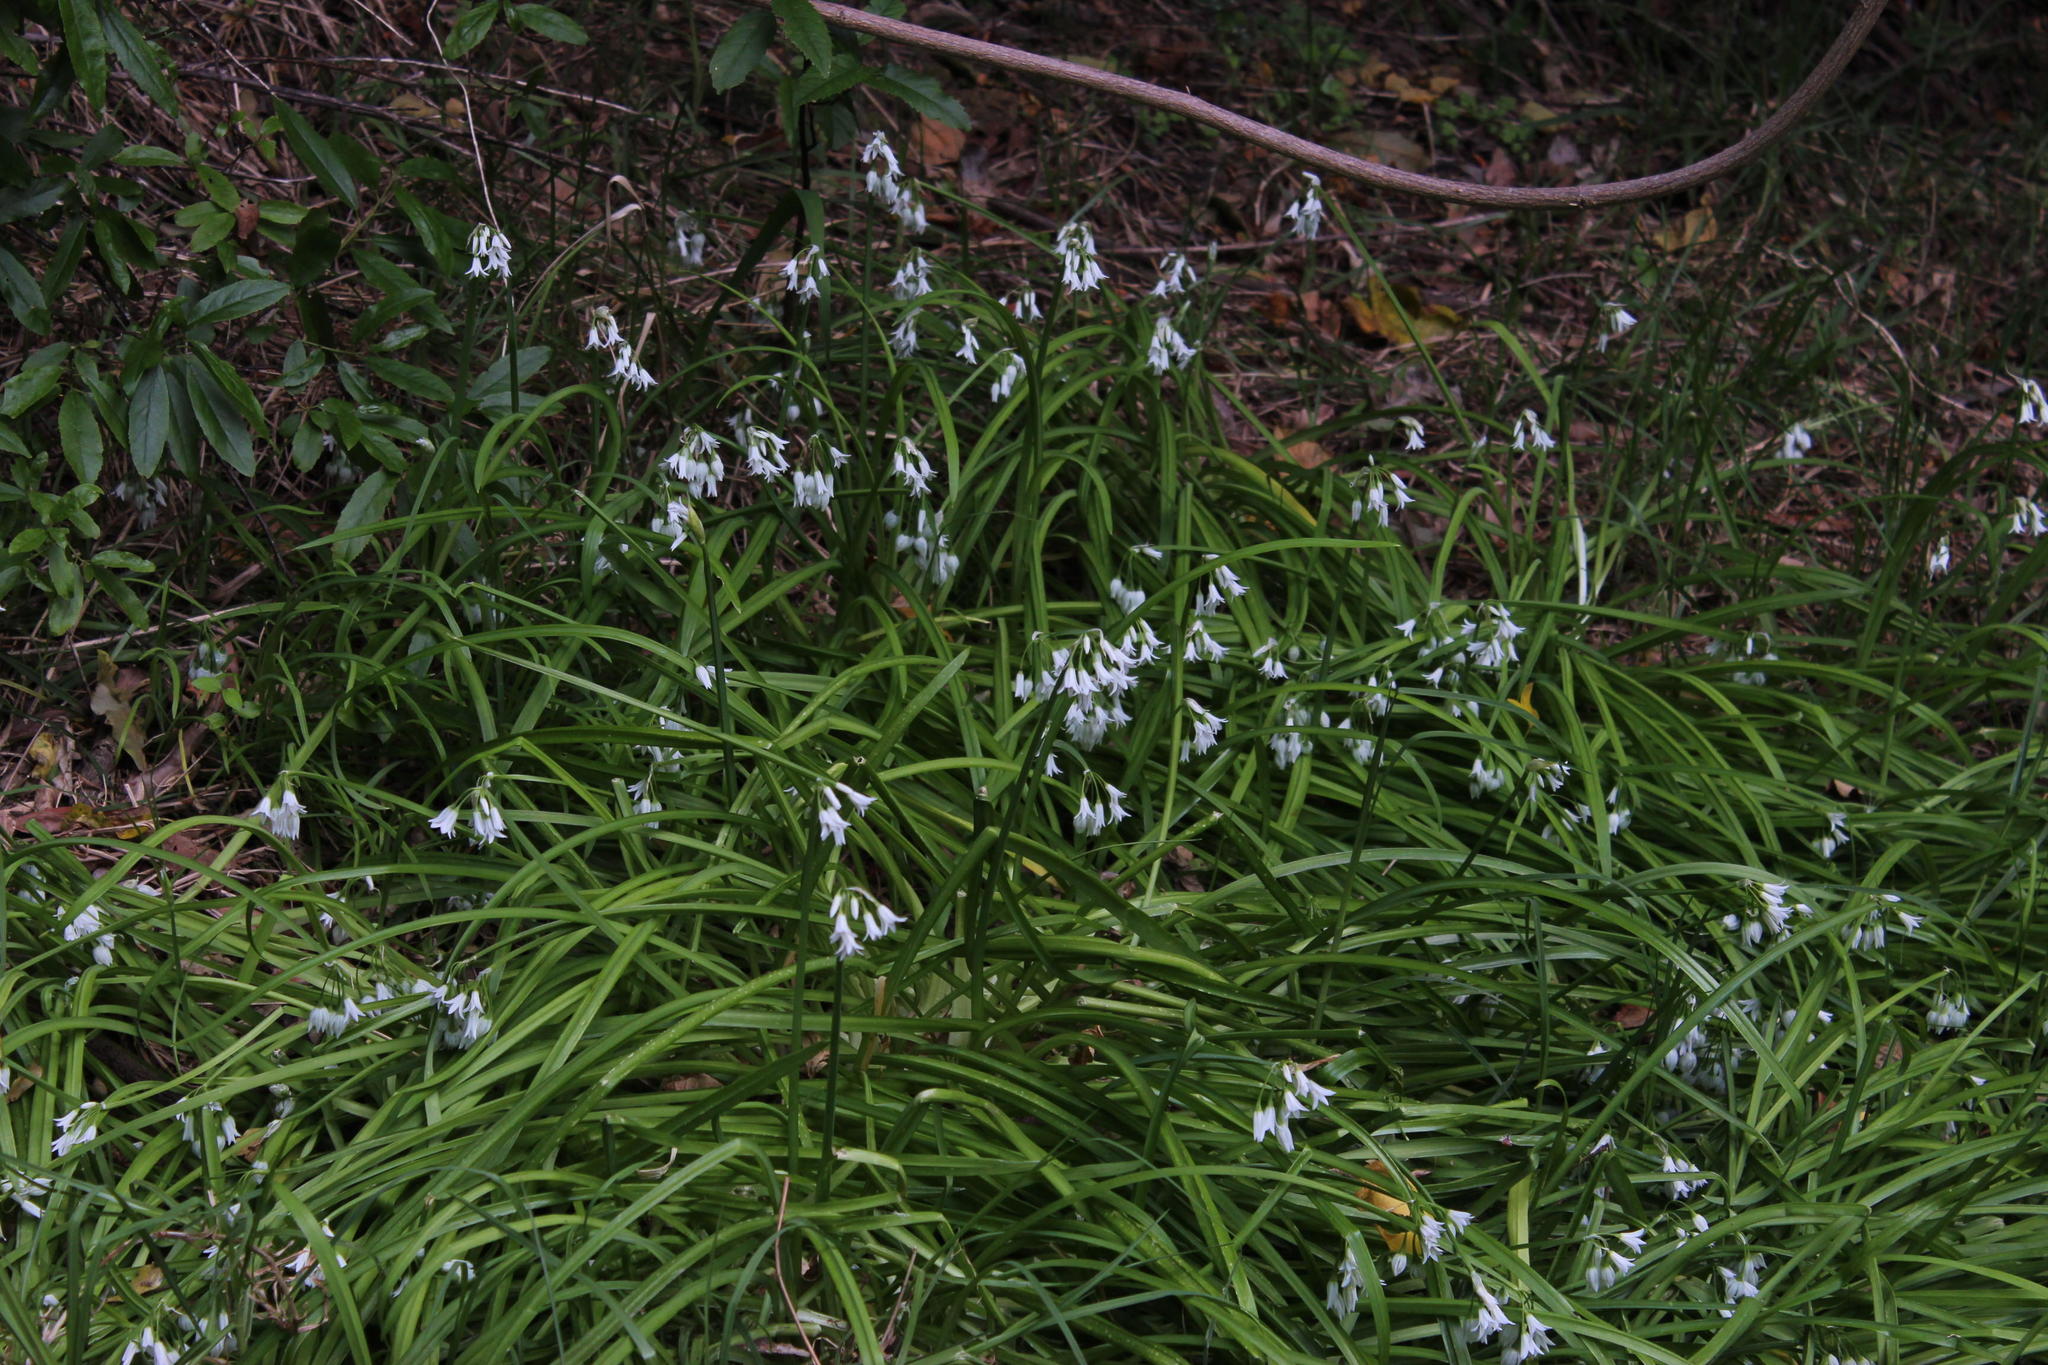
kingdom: Plantae
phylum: Tracheophyta
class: Liliopsida
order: Asparagales
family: Amaryllidaceae
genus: Allium
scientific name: Allium triquetrum
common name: Three-cornered garlic
